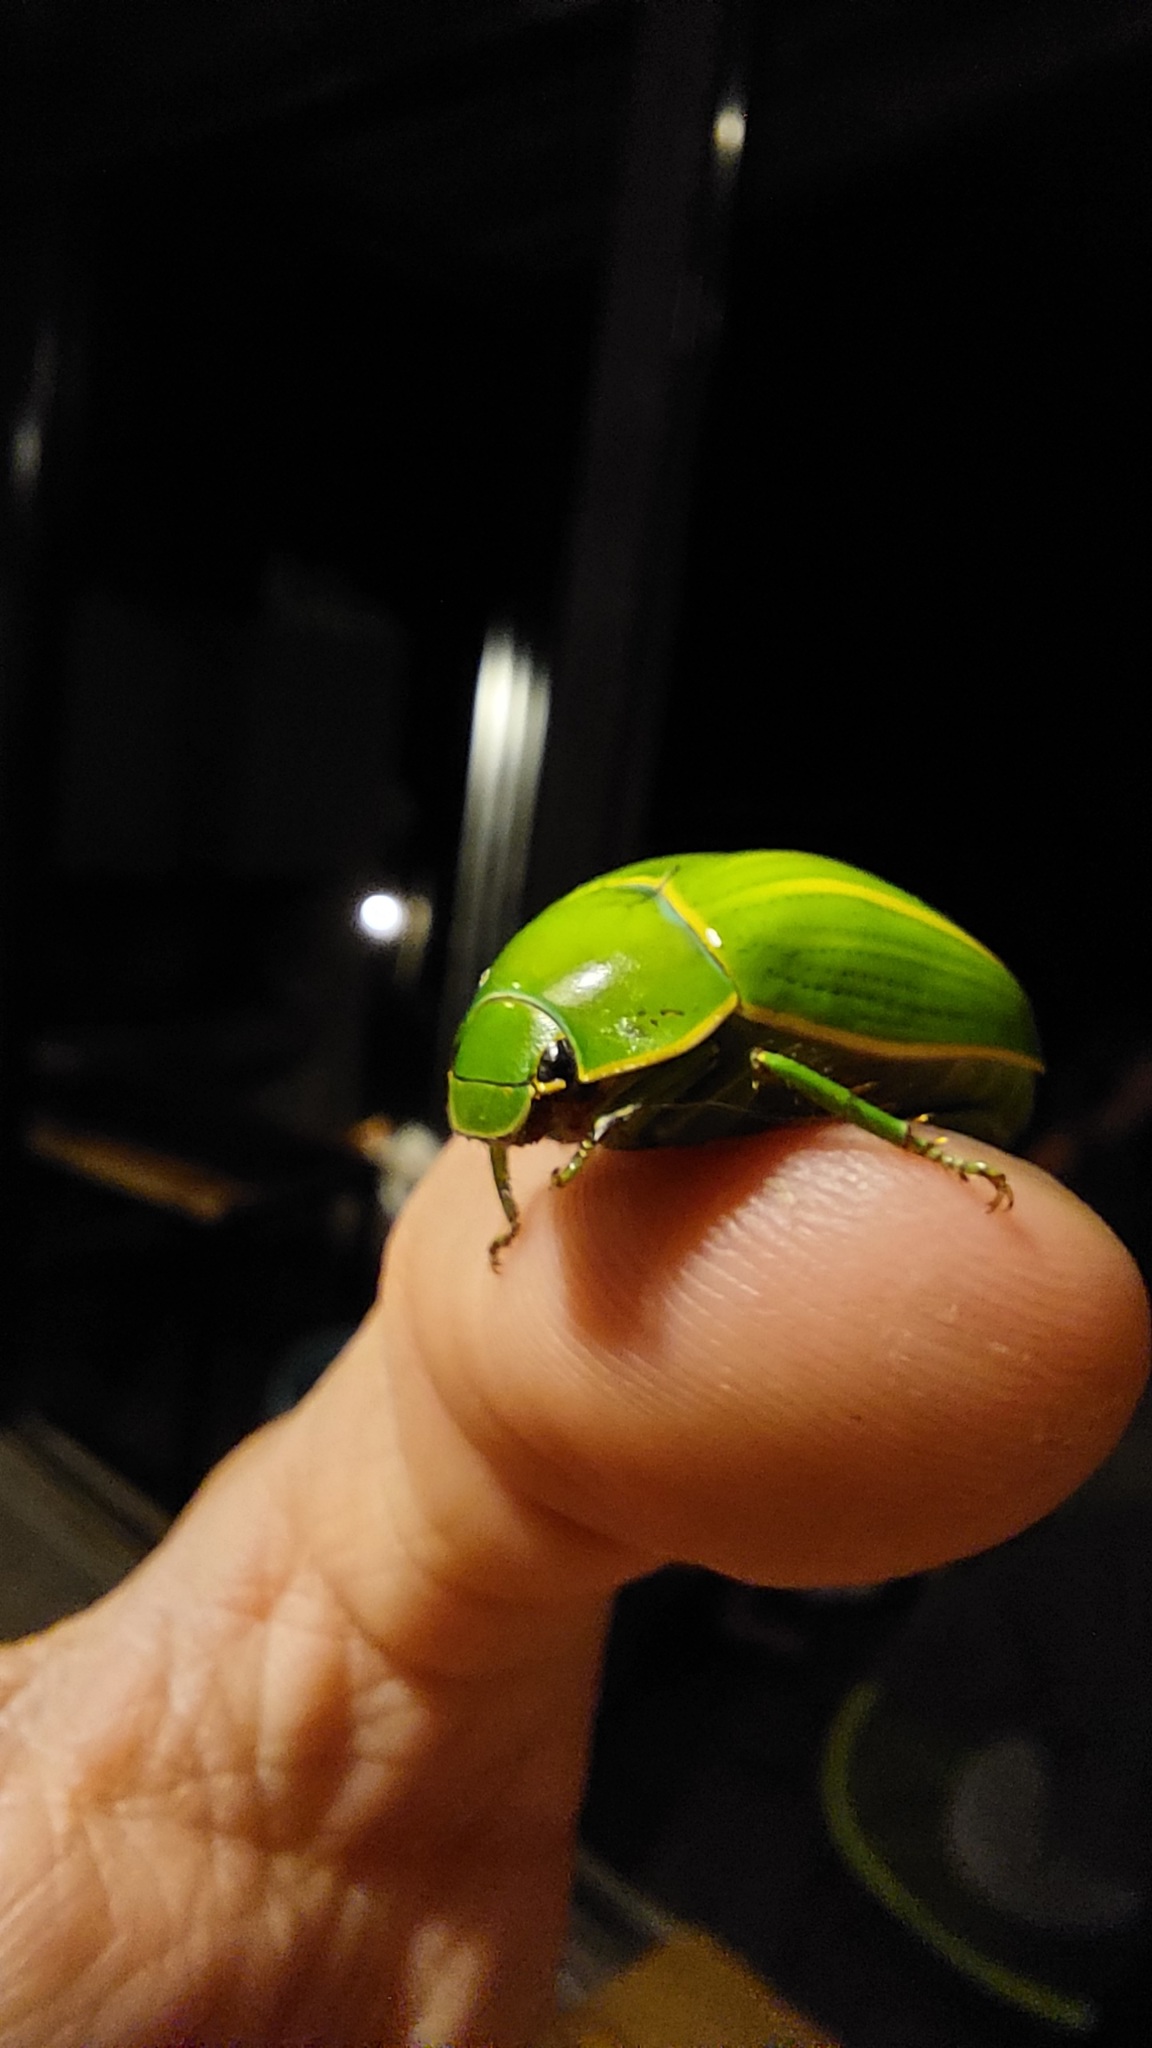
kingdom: Animalia
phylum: Arthropoda
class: Insecta
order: Coleoptera
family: Scarabaeidae
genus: Platycoelia
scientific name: Platycoelia inflata
